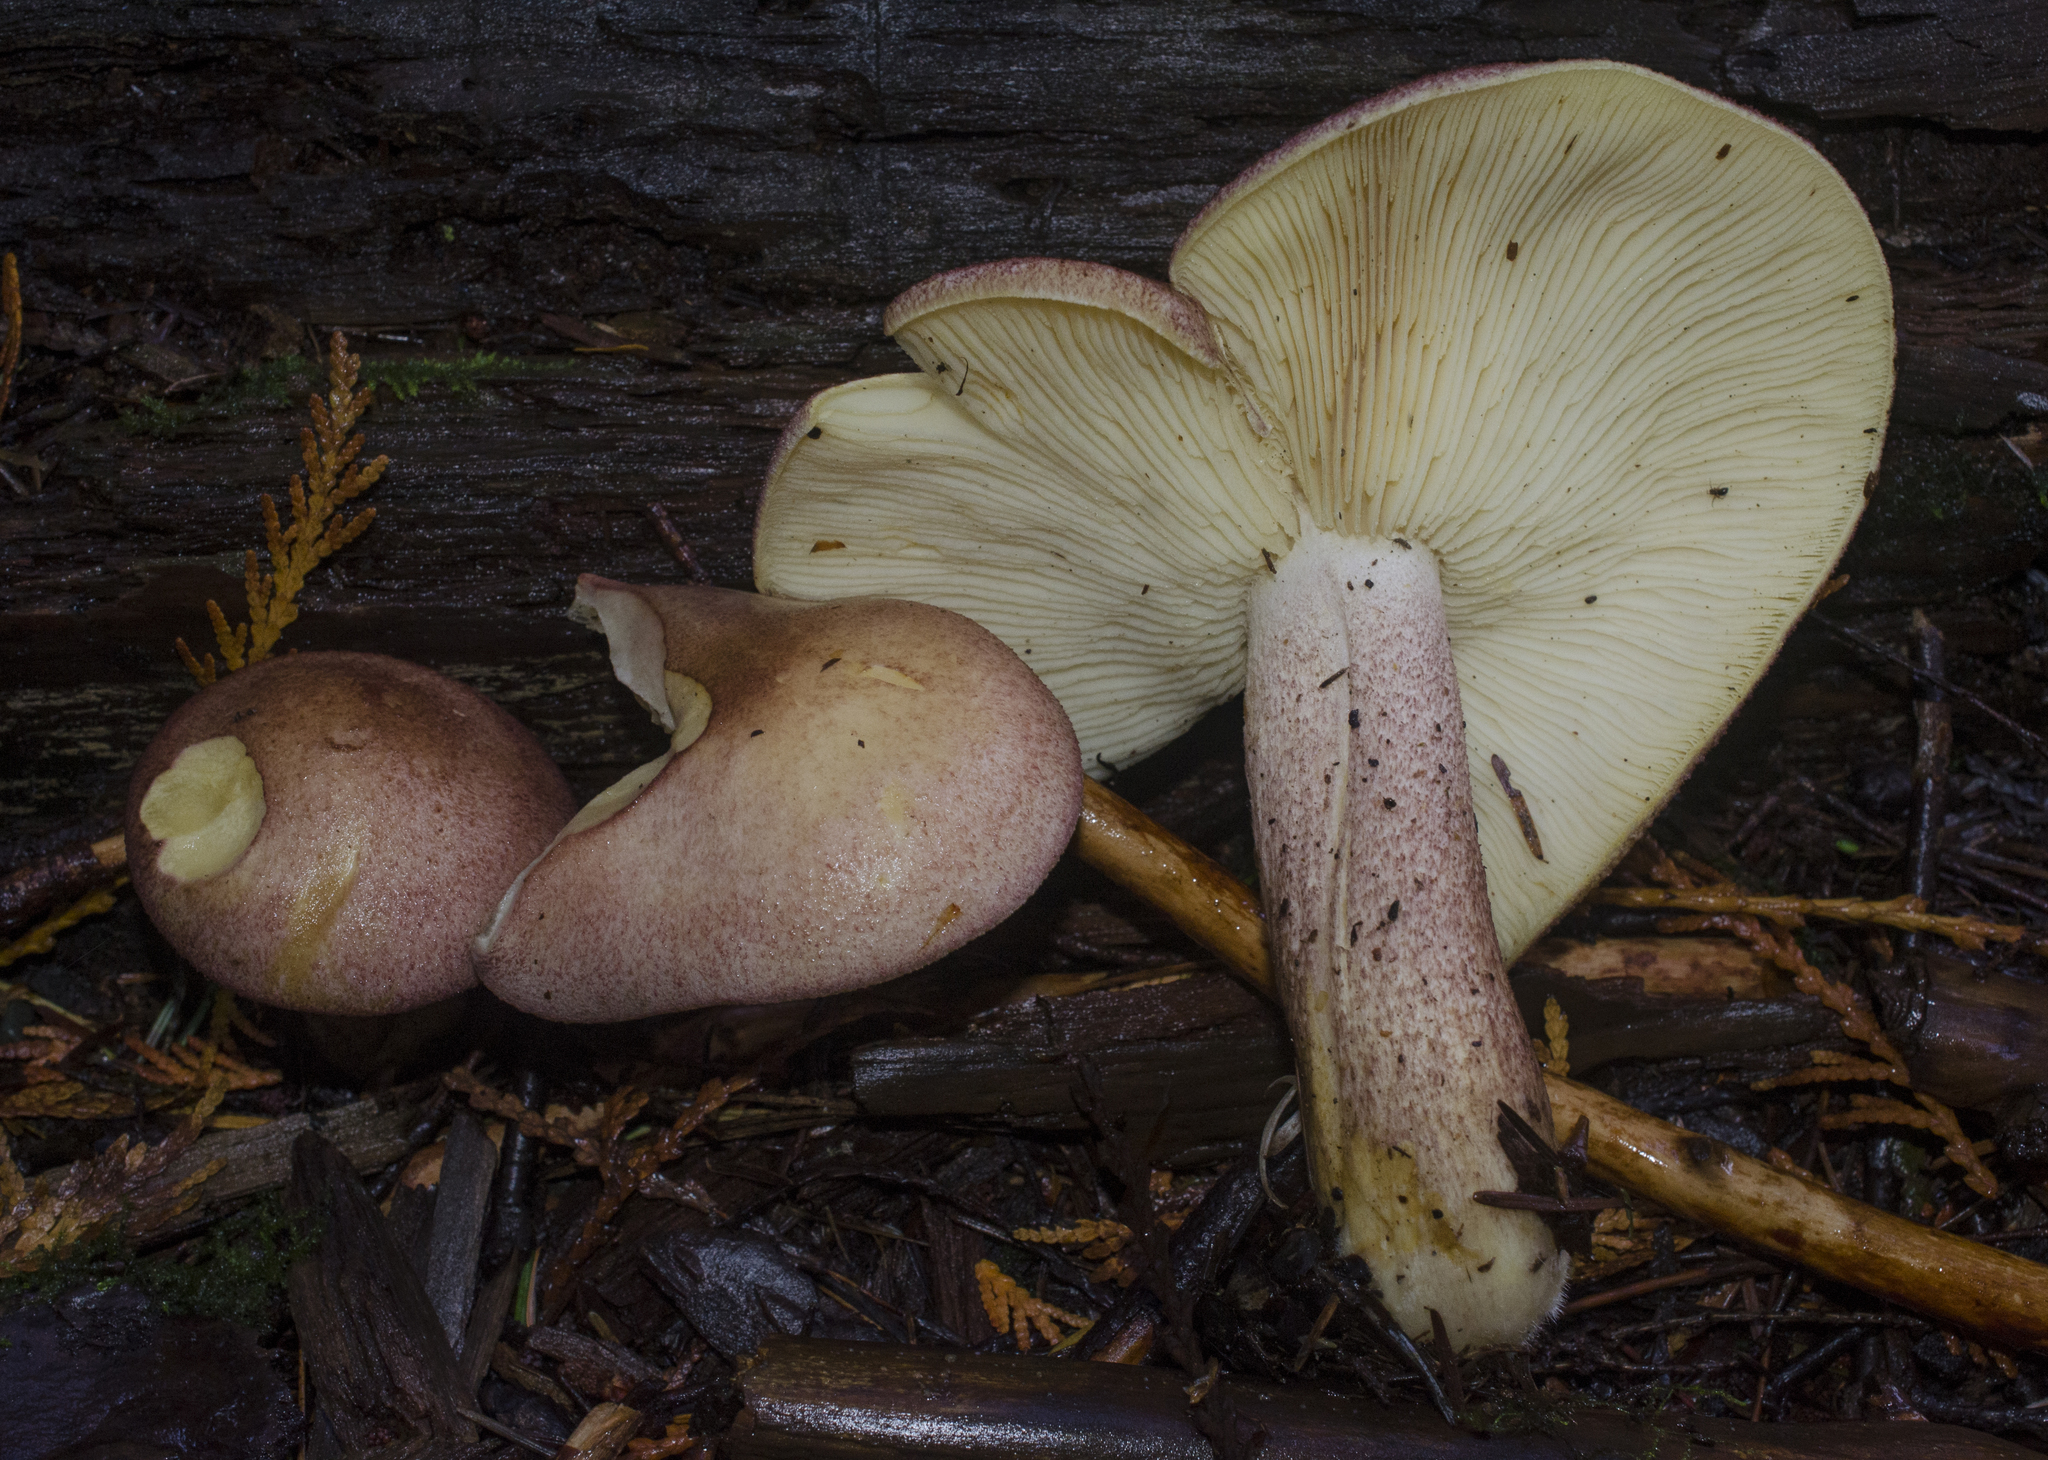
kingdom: Fungi
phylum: Basidiomycota
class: Agaricomycetes
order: Agaricales
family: Tricholomataceae
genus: Tricholomopsis
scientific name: Tricholomopsis rutilans
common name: Plums and custard
